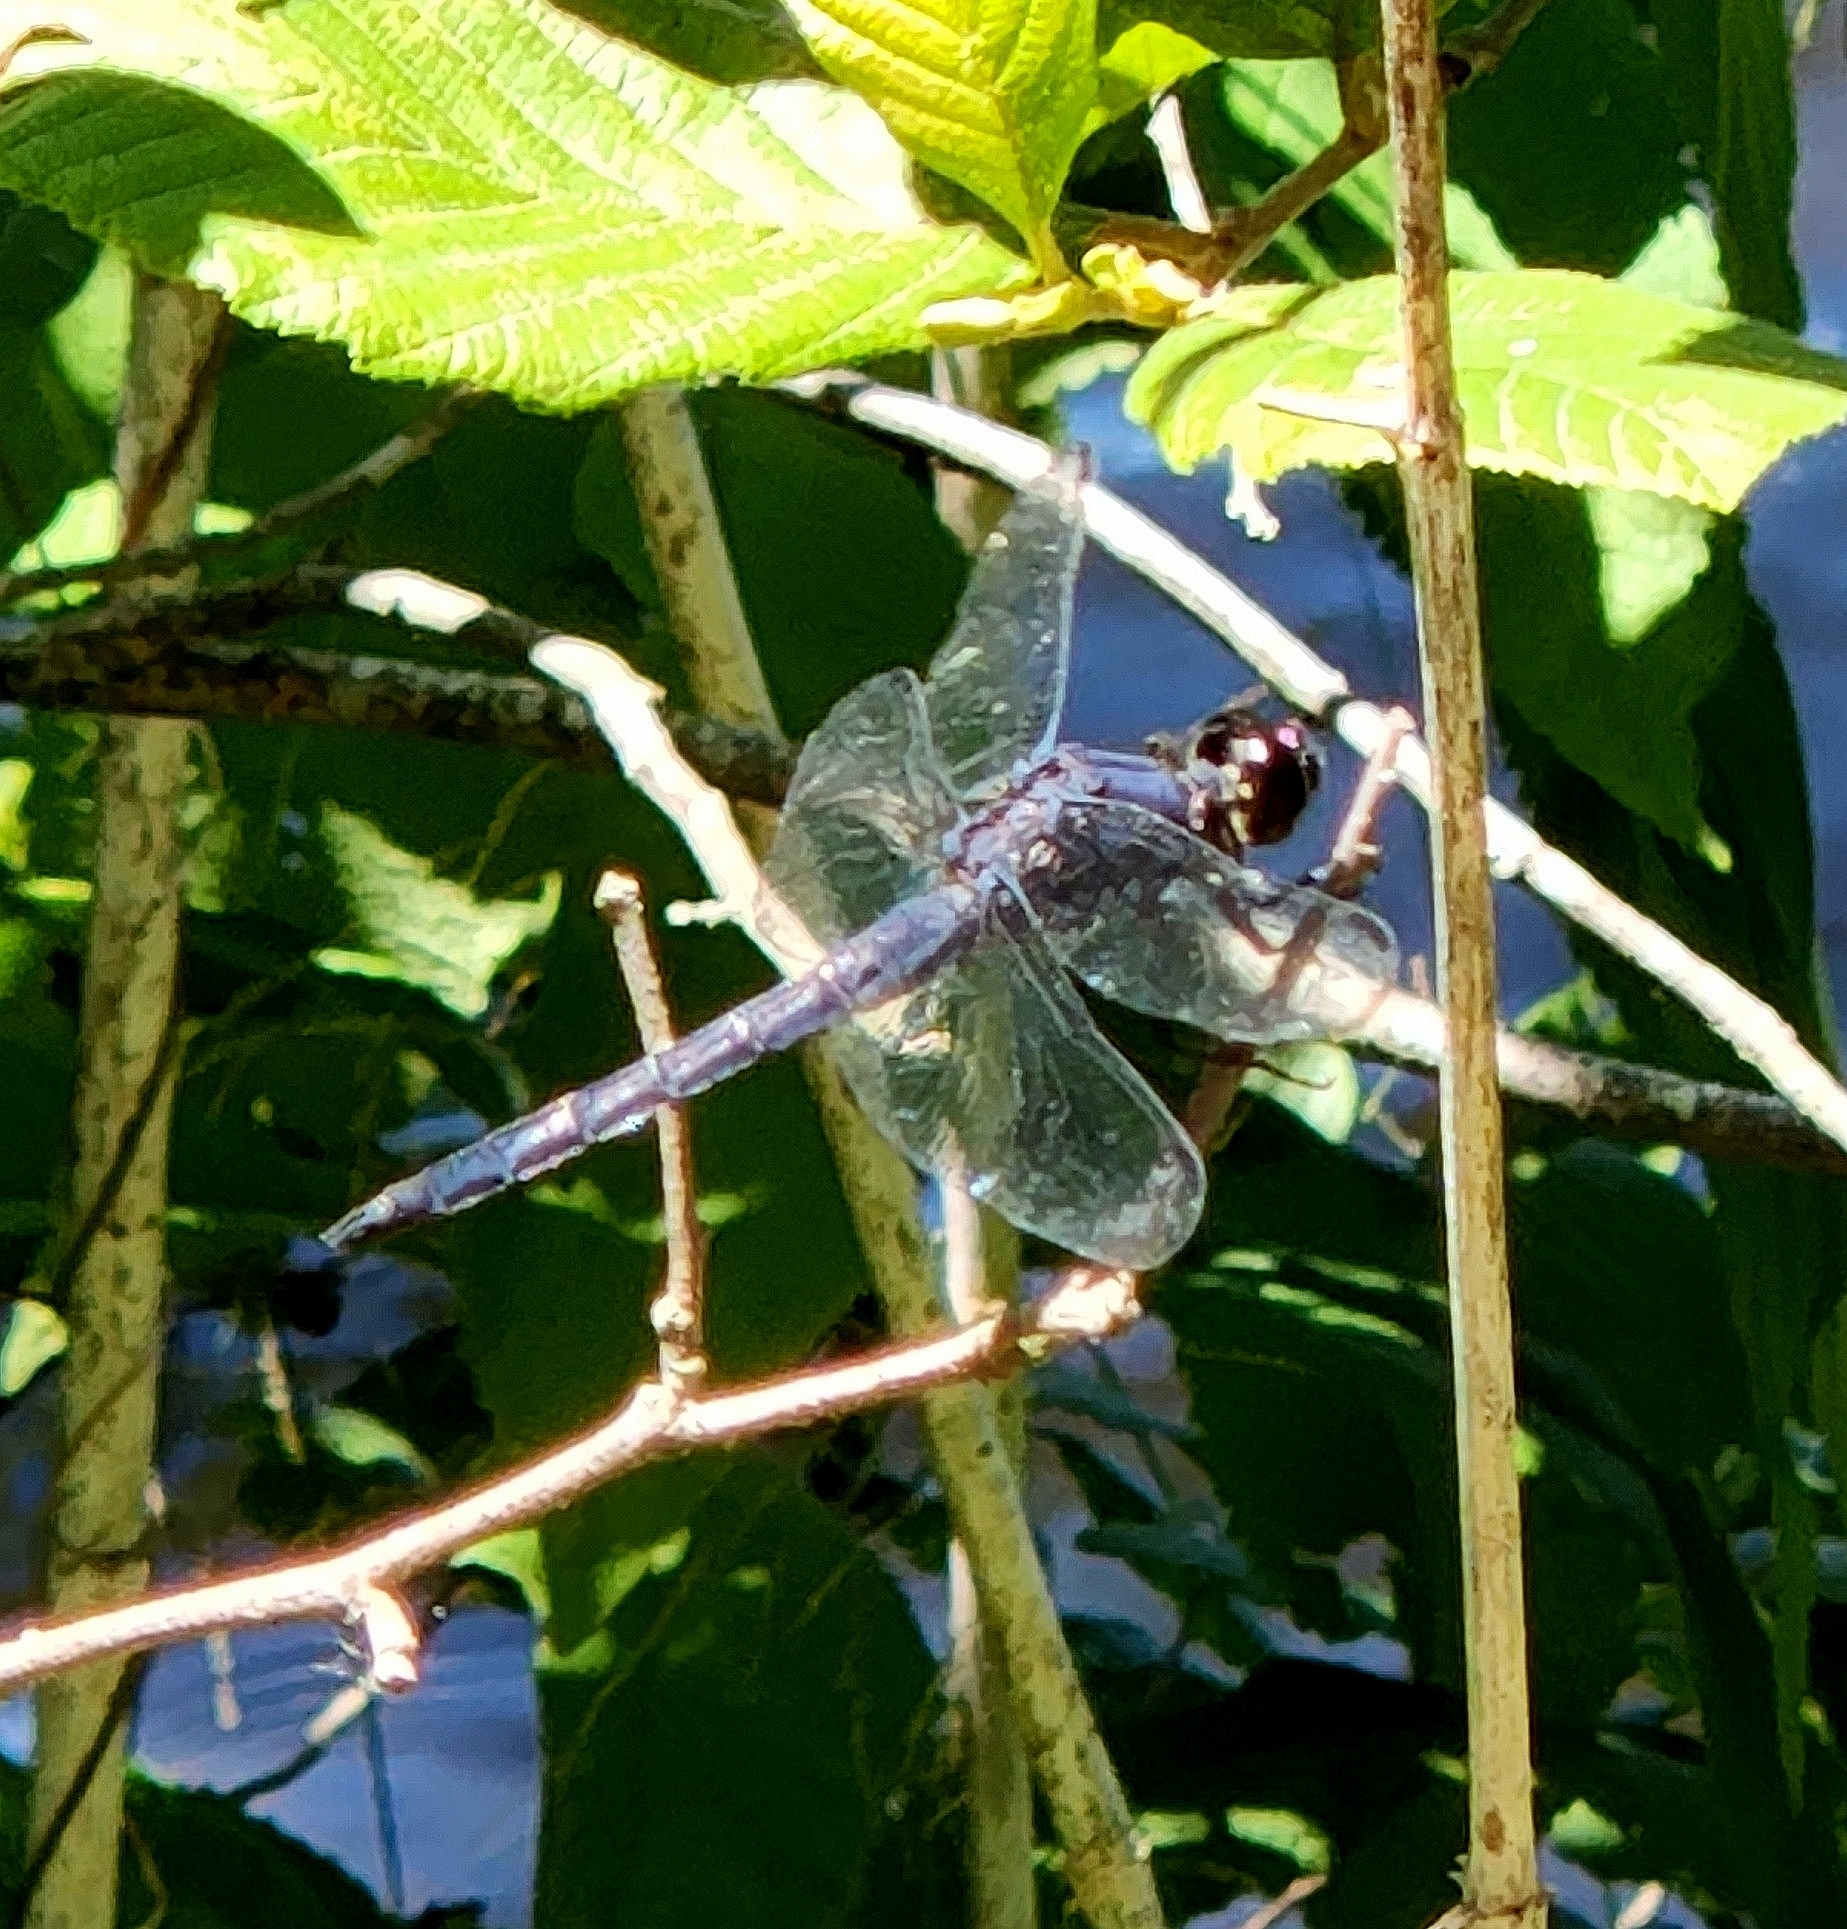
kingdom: Animalia
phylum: Arthropoda
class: Insecta
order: Odonata
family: Libellulidae
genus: Libellula
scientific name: Libellula incesta
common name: Slaty skimmer
